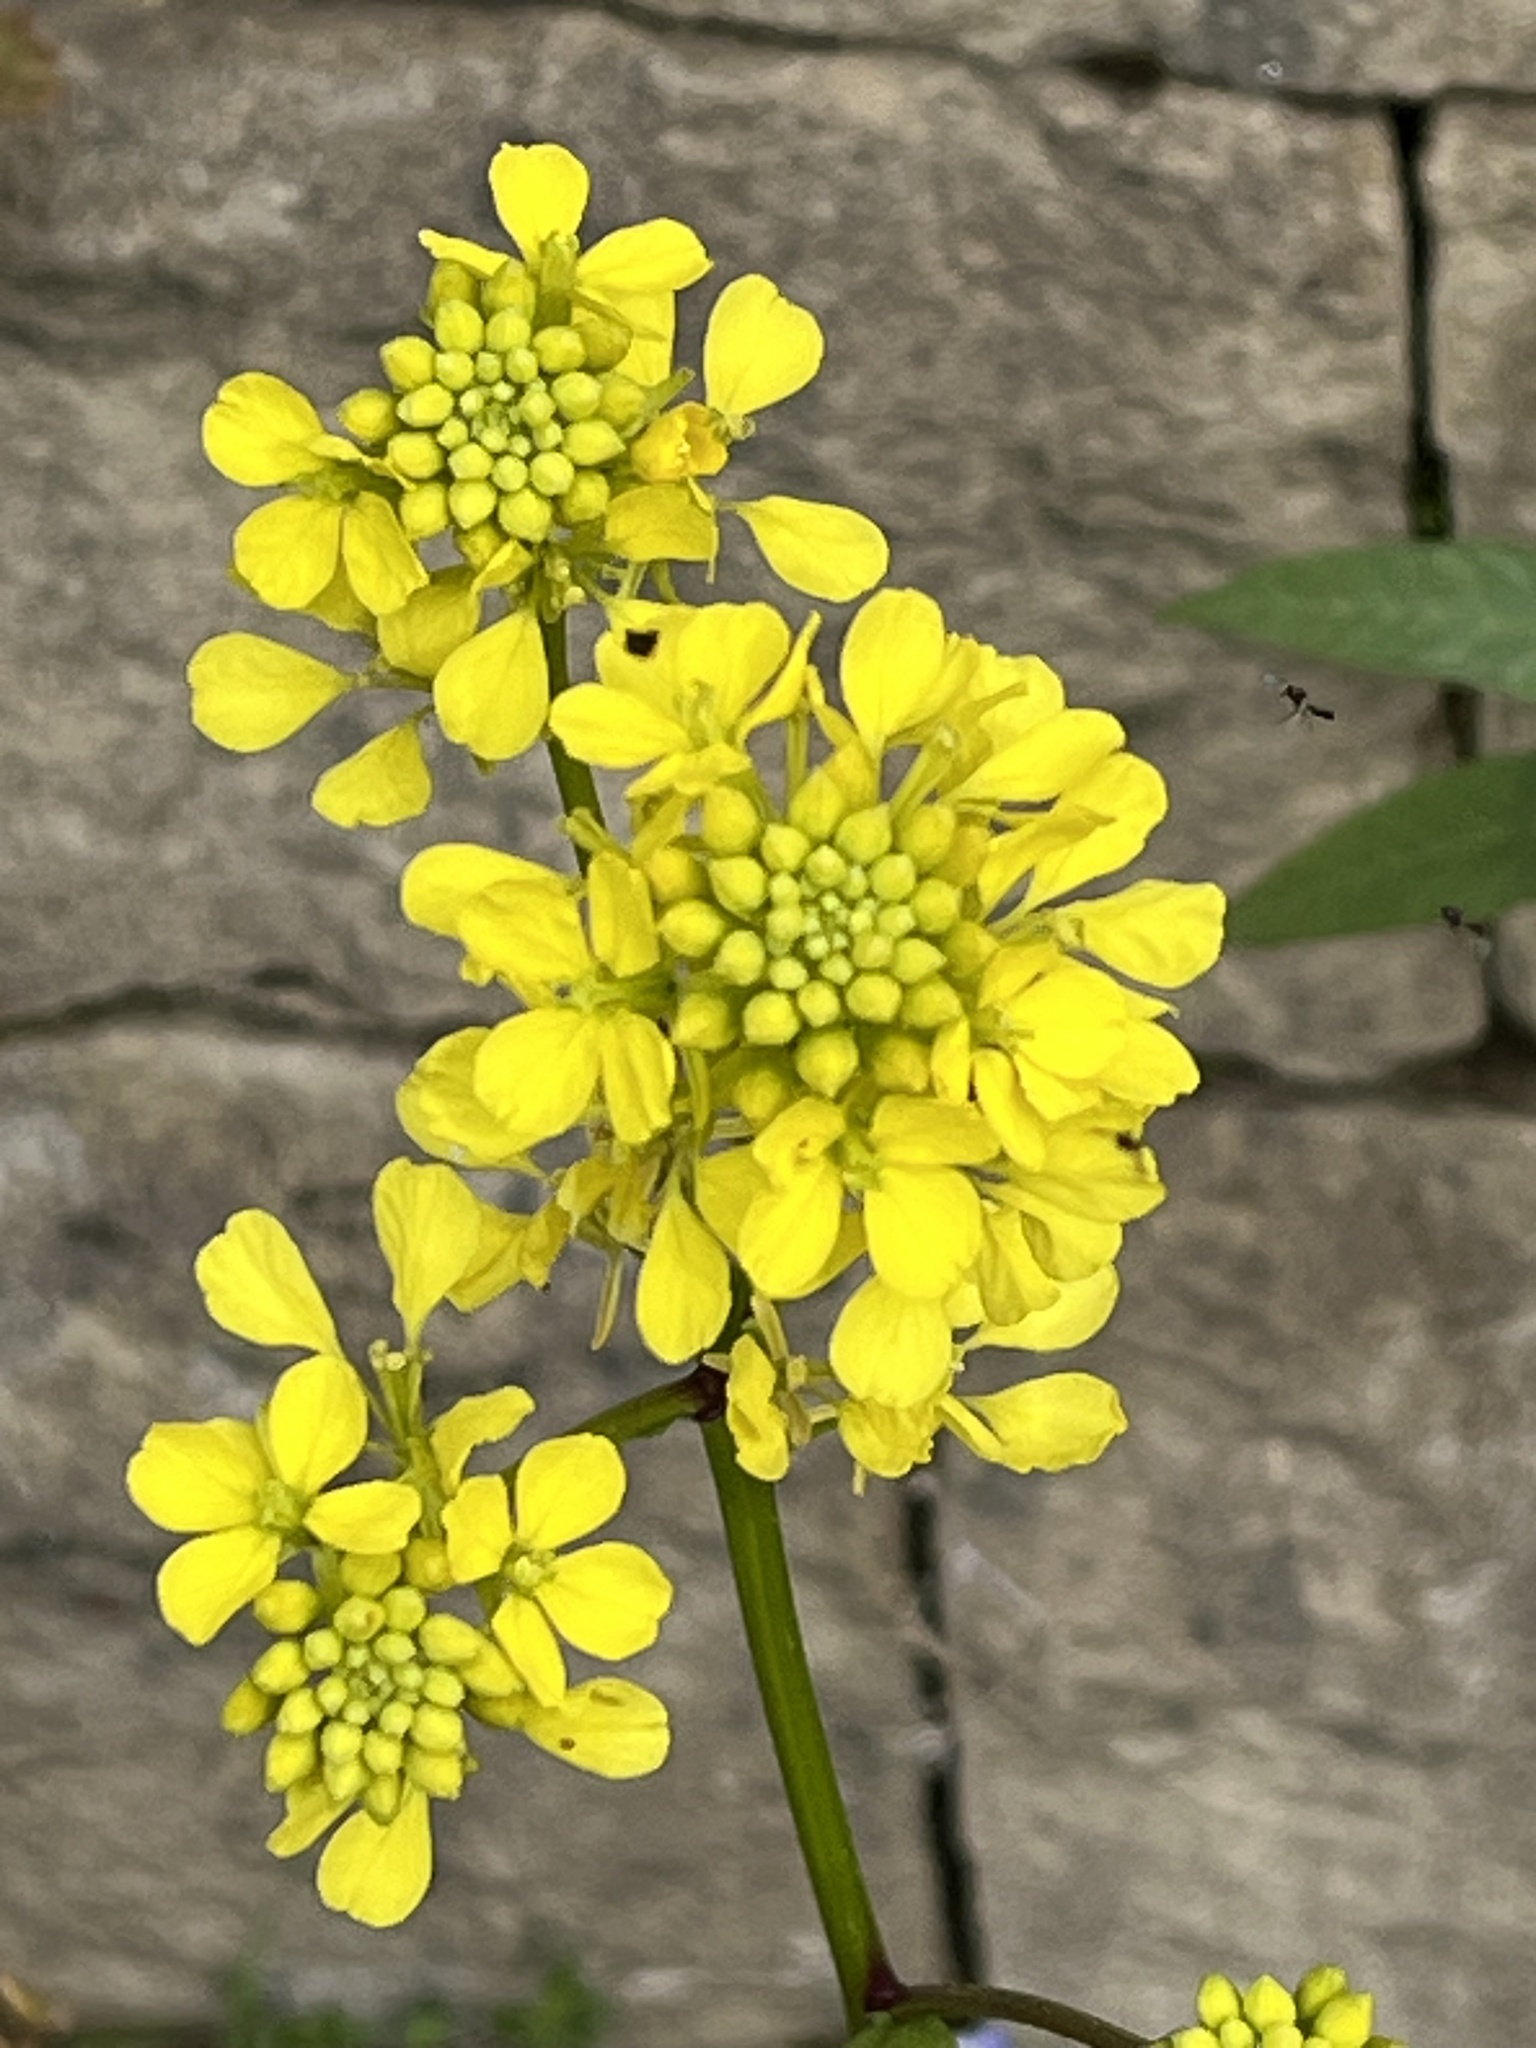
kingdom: Plantae
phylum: Tracheophyta
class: Magnoliopsida
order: Brassicales
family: Brassicaceae
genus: Sinapis
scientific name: Sinapis arvensis
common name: Charlock
